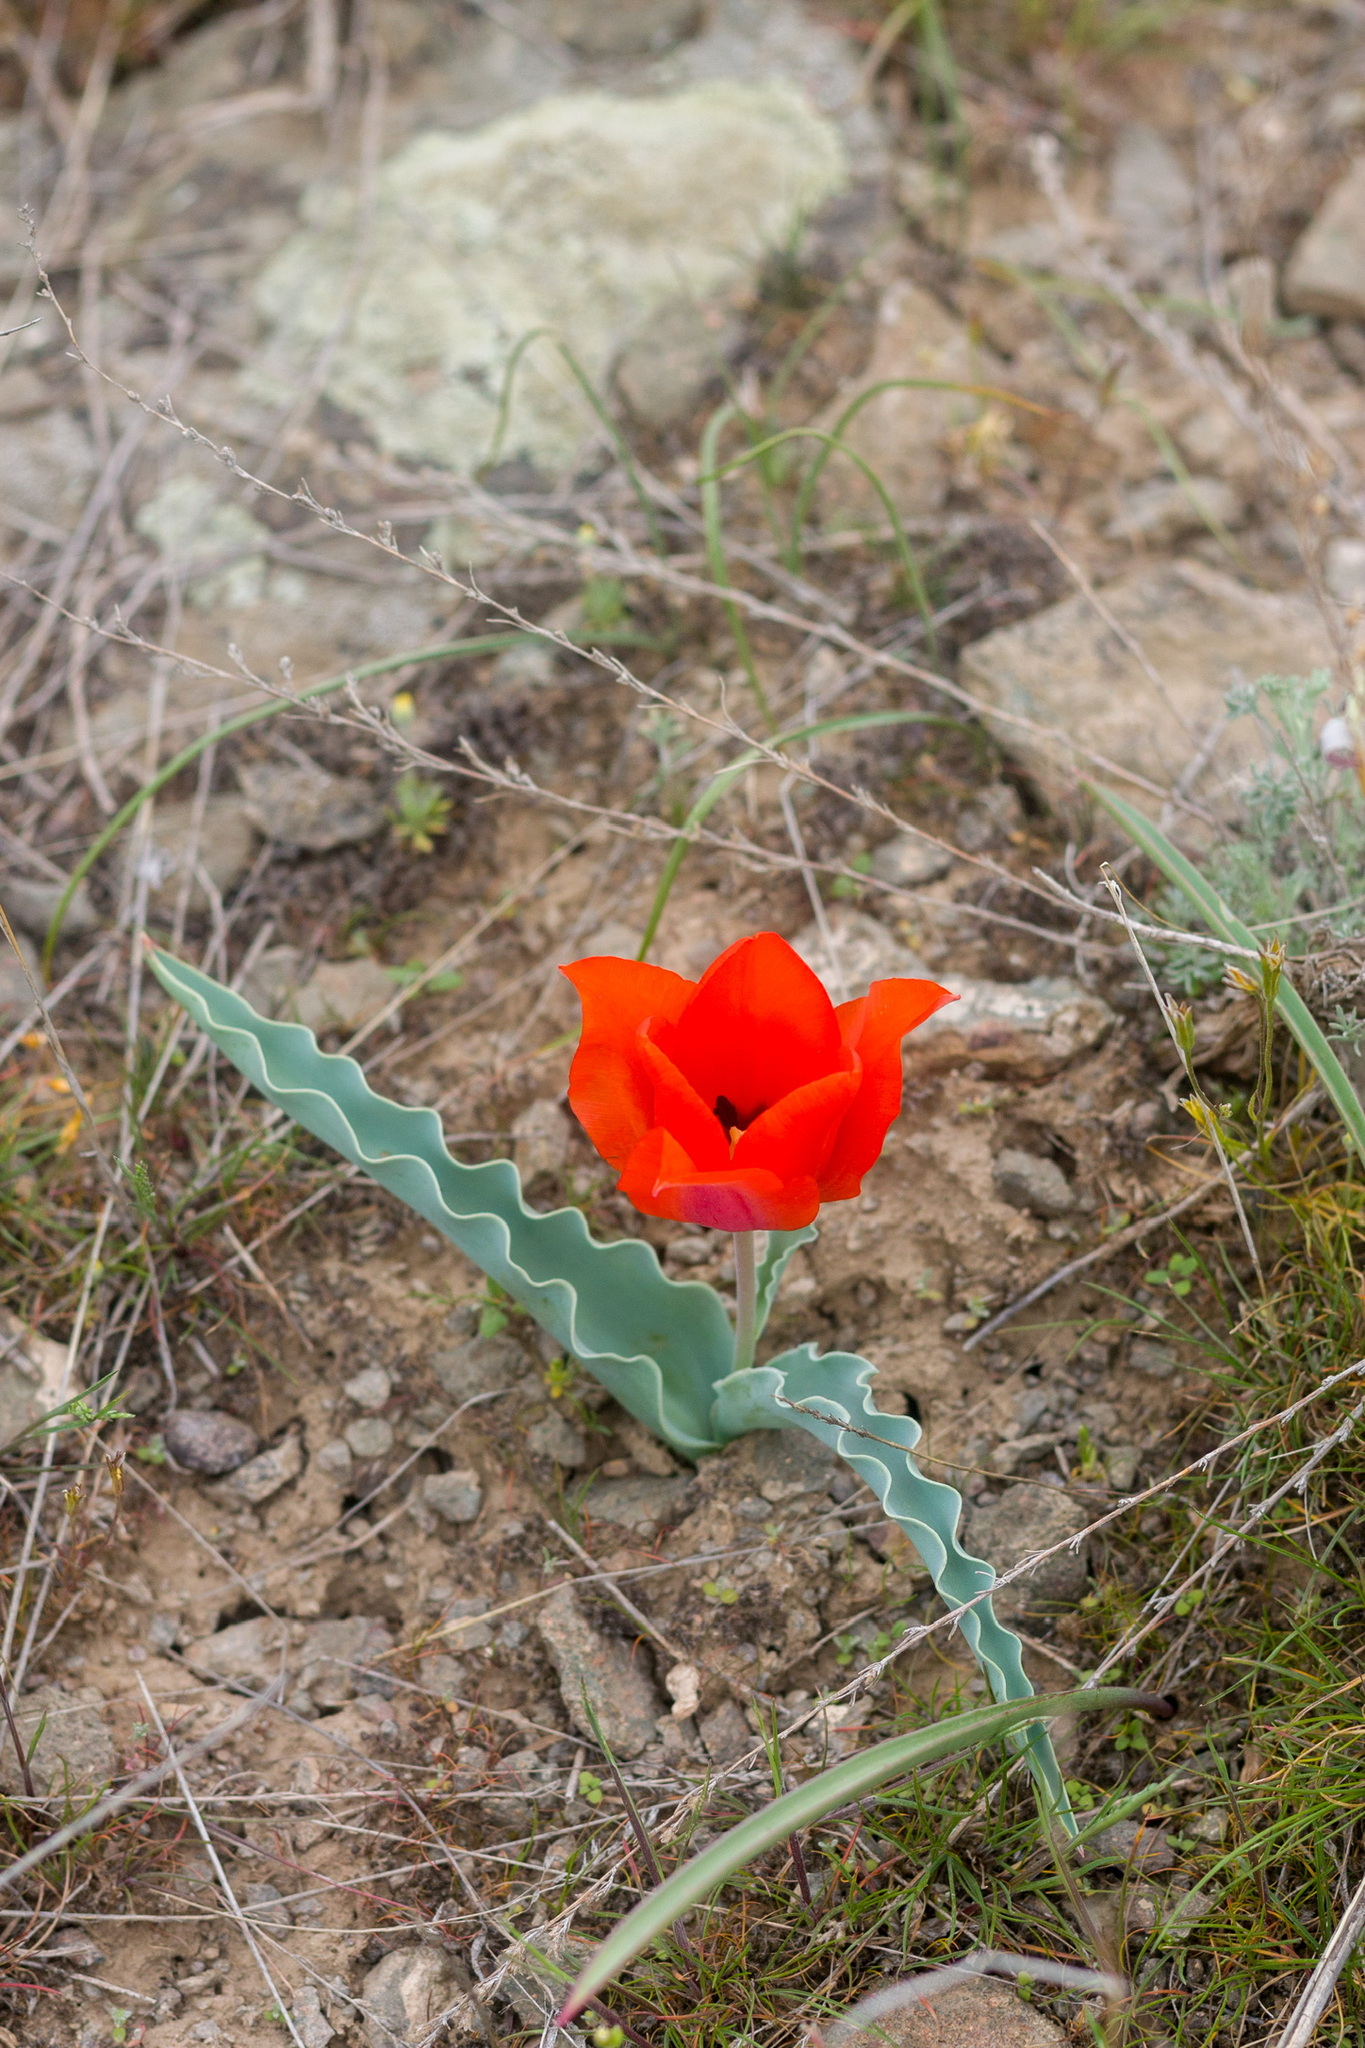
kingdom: Plantae
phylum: Tracheophyta
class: Liliopsida
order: Liliales
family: Liliaceae
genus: Tulipa
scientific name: Tulipa alberti
